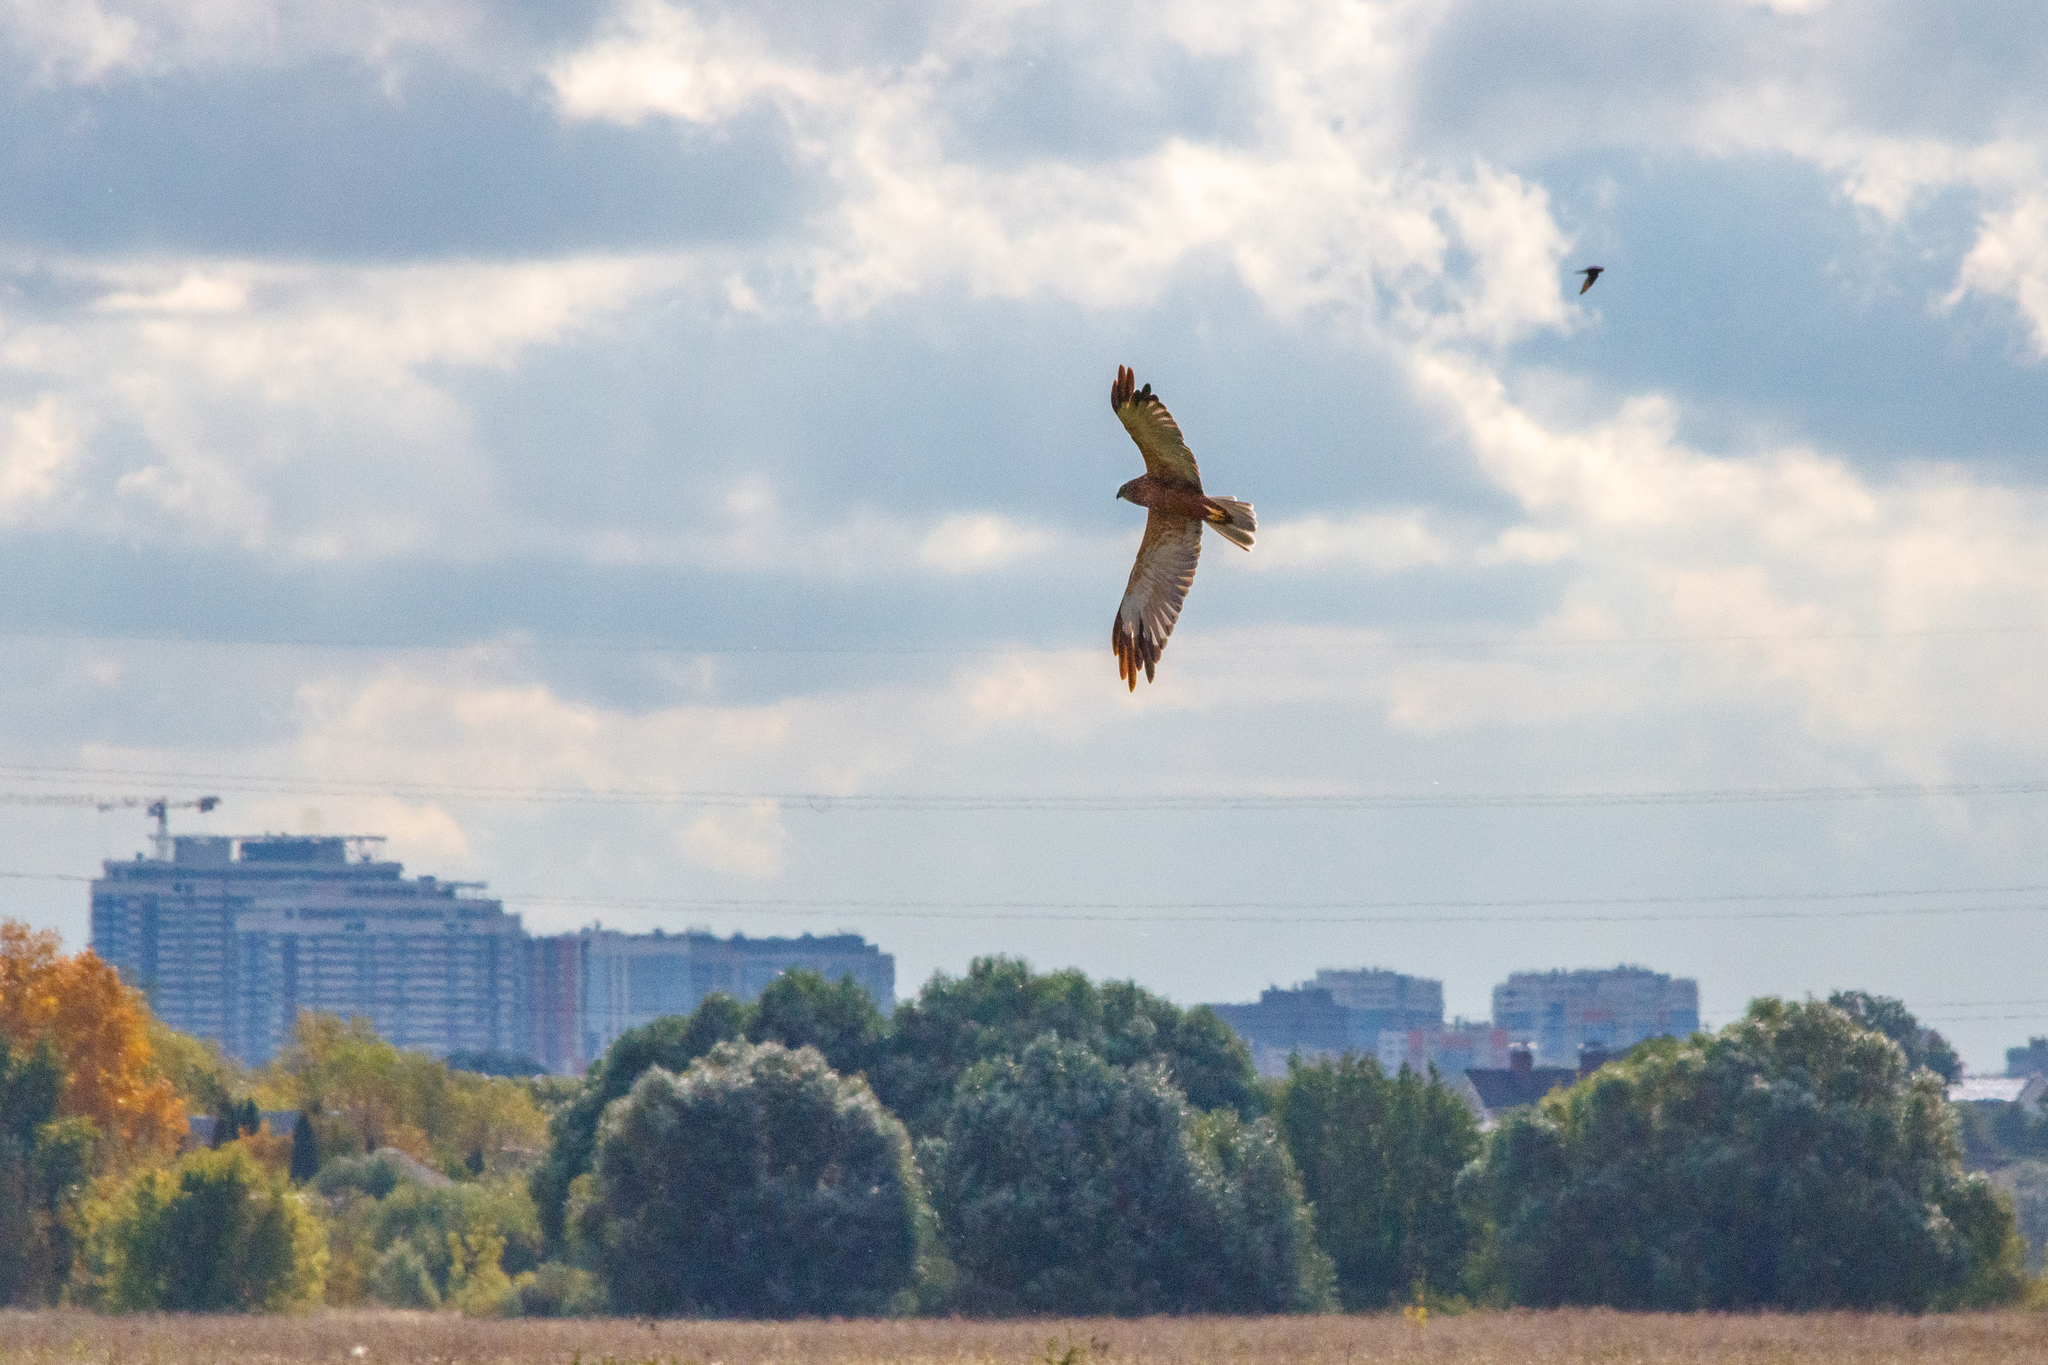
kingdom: Animalia
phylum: Chordata
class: Aves
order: Accipitriformes
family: Accipitridae
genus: Circus
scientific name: Circus aeruginosus
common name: Western marsh harrier
